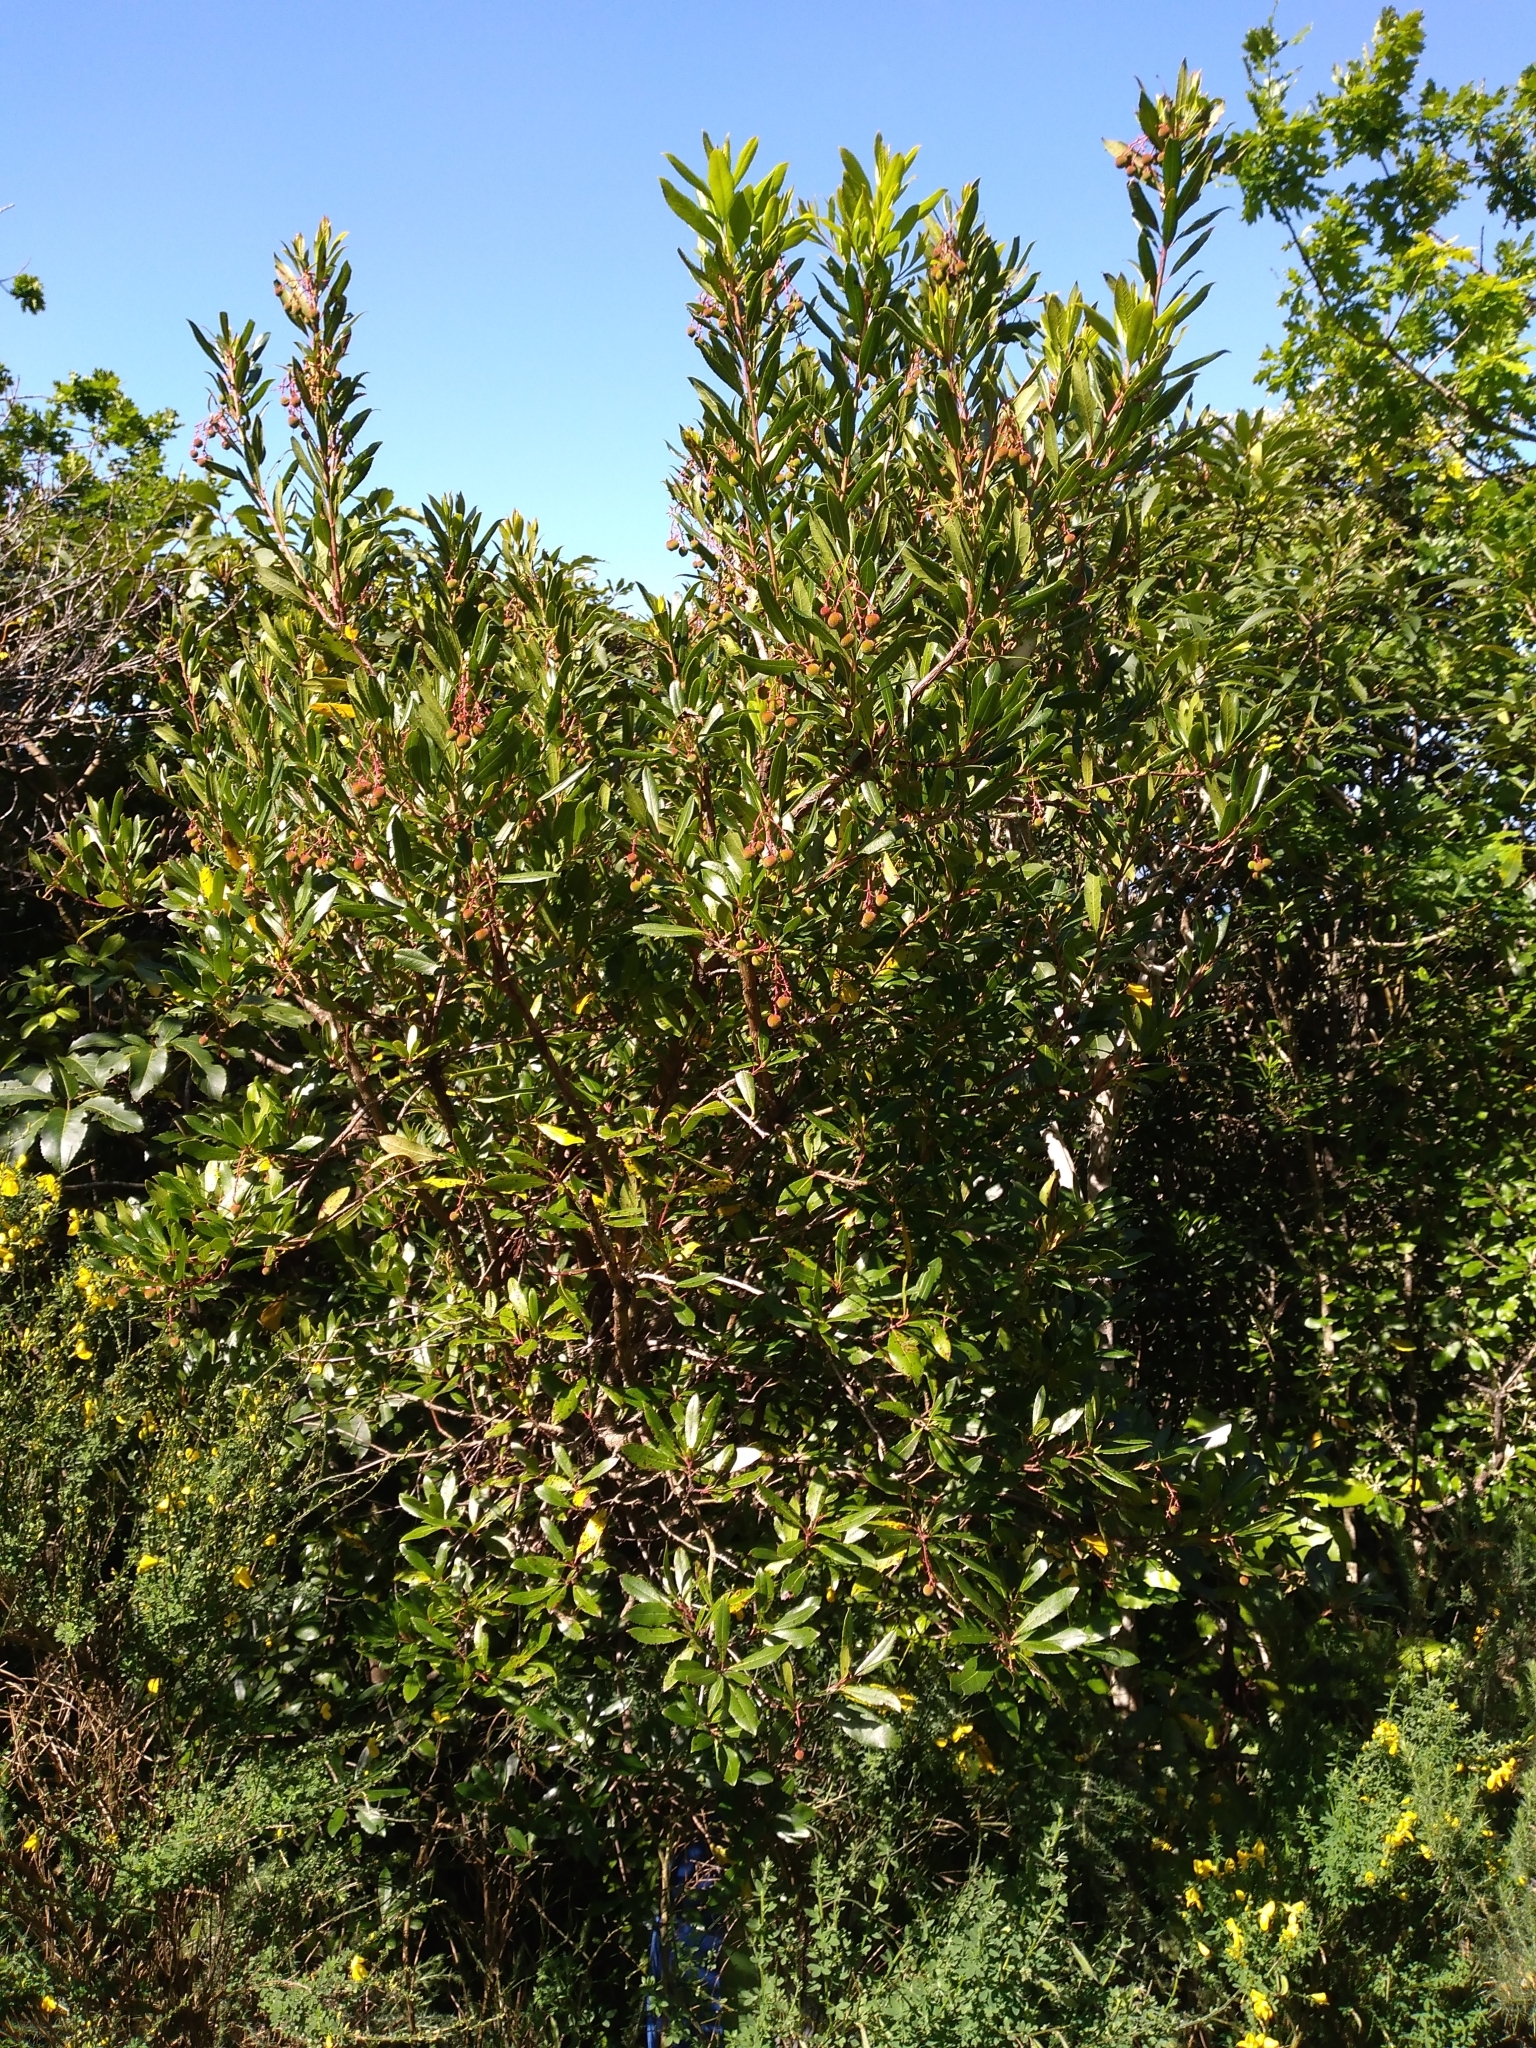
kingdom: Plantae
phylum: Tracheophyta
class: Magnoliopsida
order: Ericales
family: Ericaceae
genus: Arbutus
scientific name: Arbutus unedo
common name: Strawberry-tree
